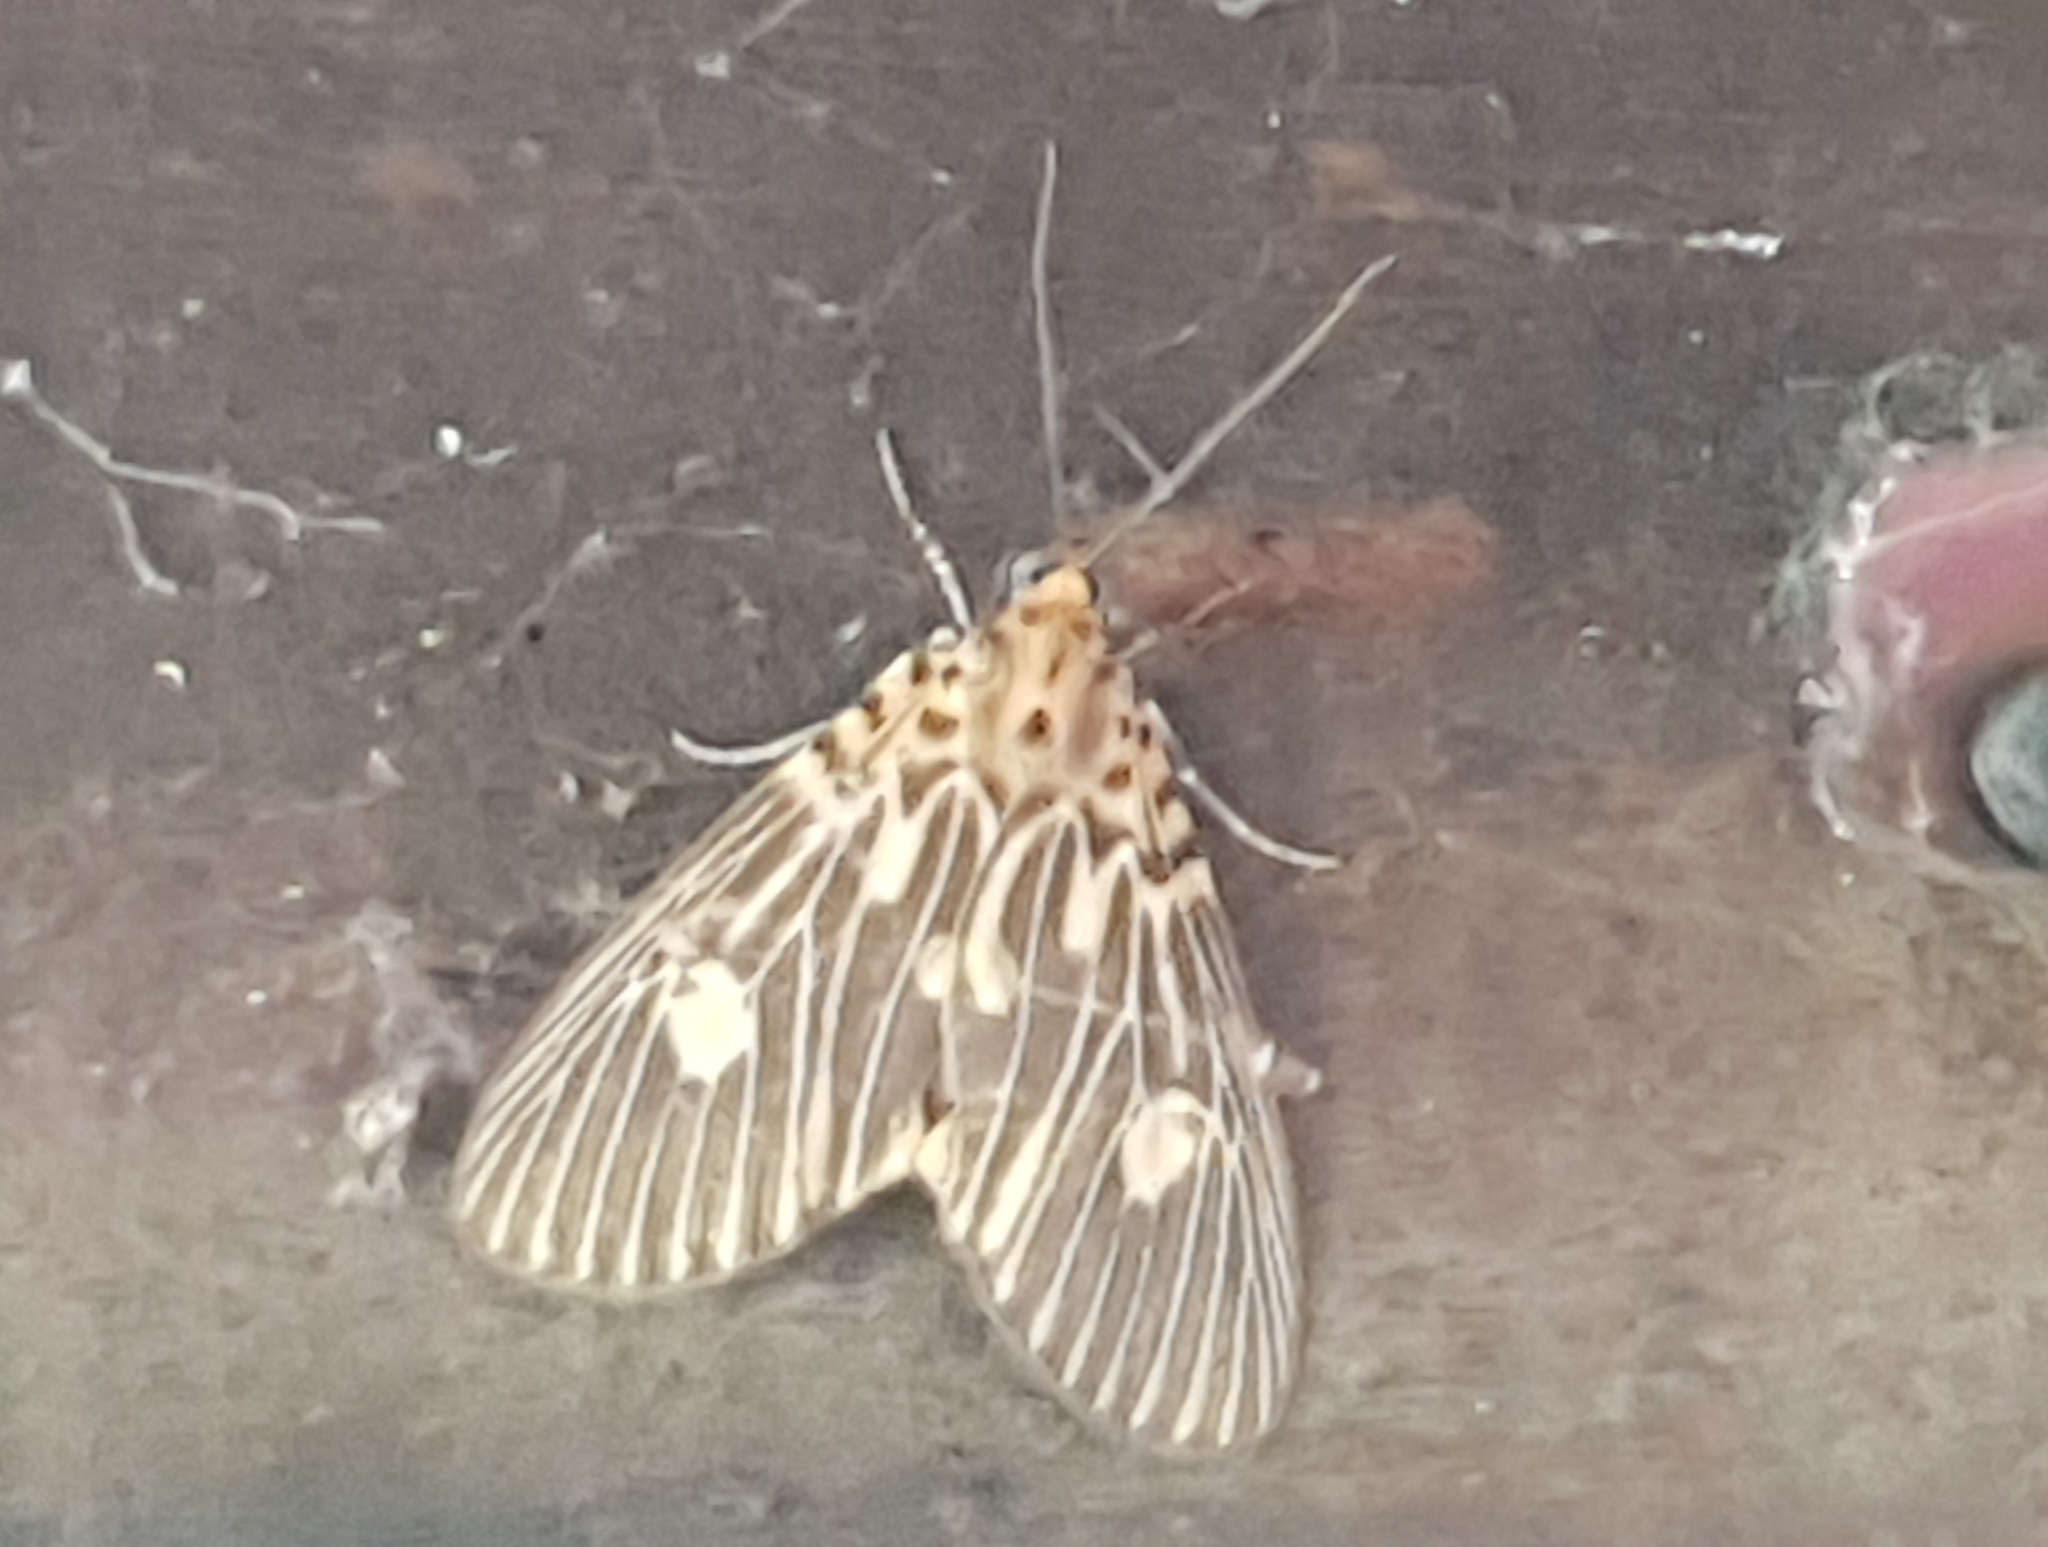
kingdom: Animalia
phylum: Arthropoda
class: Insecta
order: Lepidoptera
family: Erebidae
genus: Asota
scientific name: Asota plagiata
